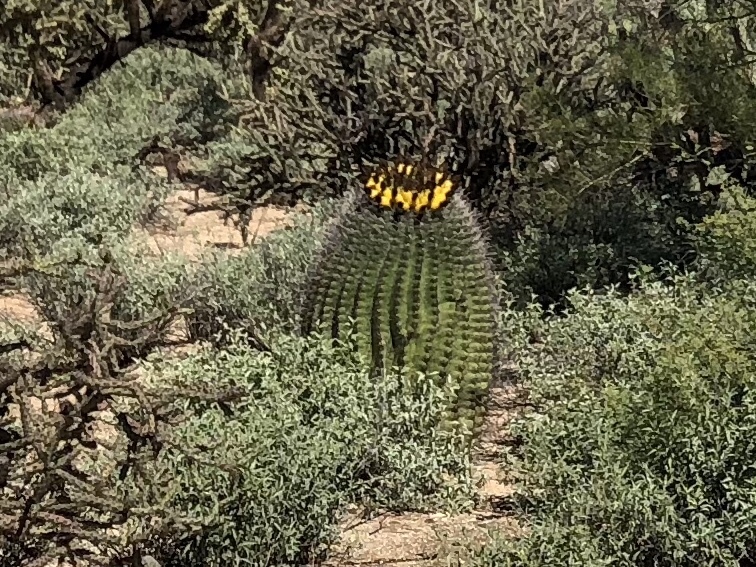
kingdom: Plantae
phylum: Tracheophyta
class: Magnoliopsida
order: Caryophyllales
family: Cactaceae
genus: Ferocactus
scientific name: Ferocactus wislizeni
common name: Candy barrel cactus
